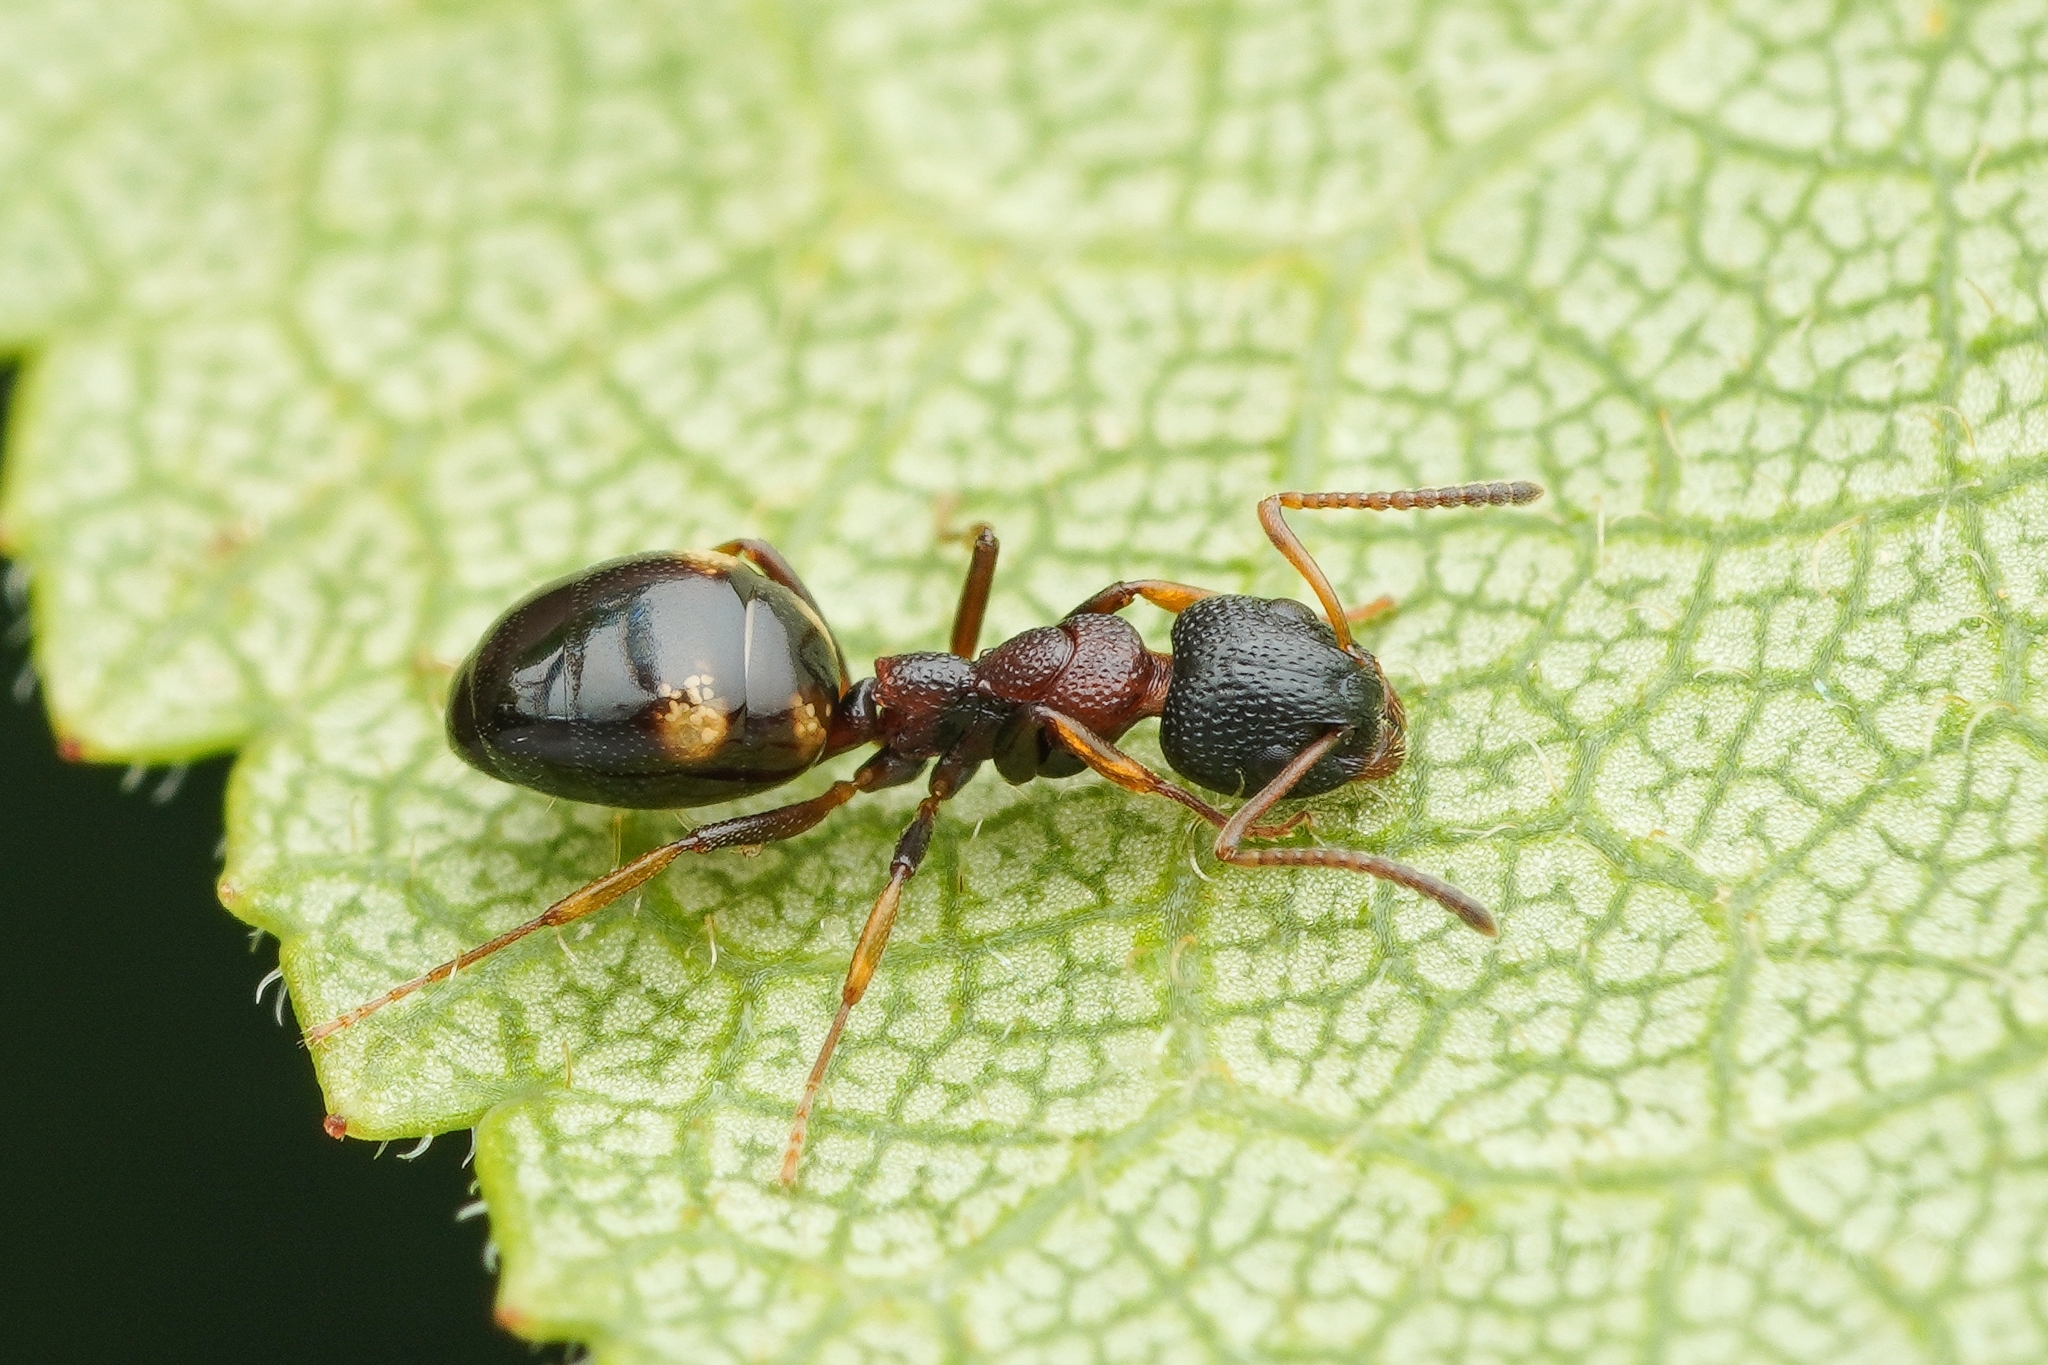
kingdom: Animalia
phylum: Arthropoda
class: Insecta
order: Hymenoptera
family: Formicidae
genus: Dolichoderus
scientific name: Dolichoderus sibiricus
